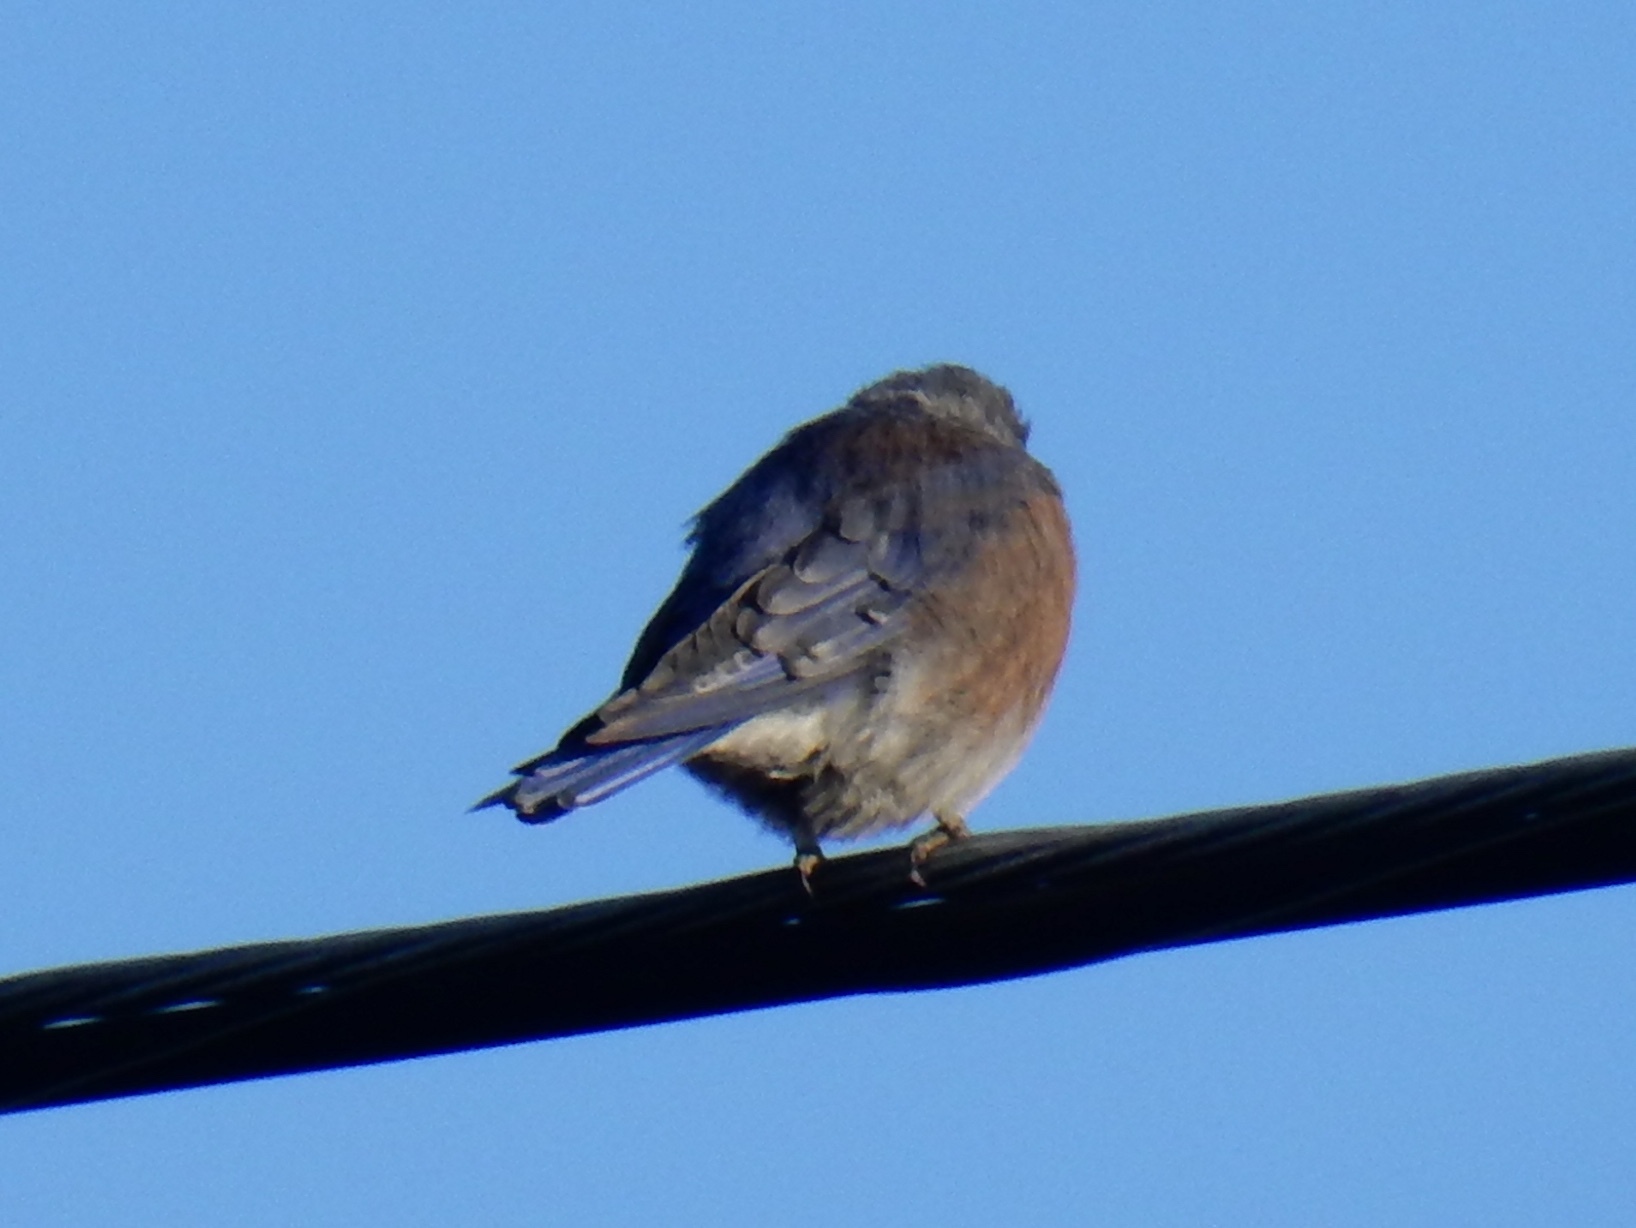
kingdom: Animalia
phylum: Chordata
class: Aves
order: Passeriformes
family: Turdidae
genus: Sialia
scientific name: Sialia mexicana
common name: Western bluebird
